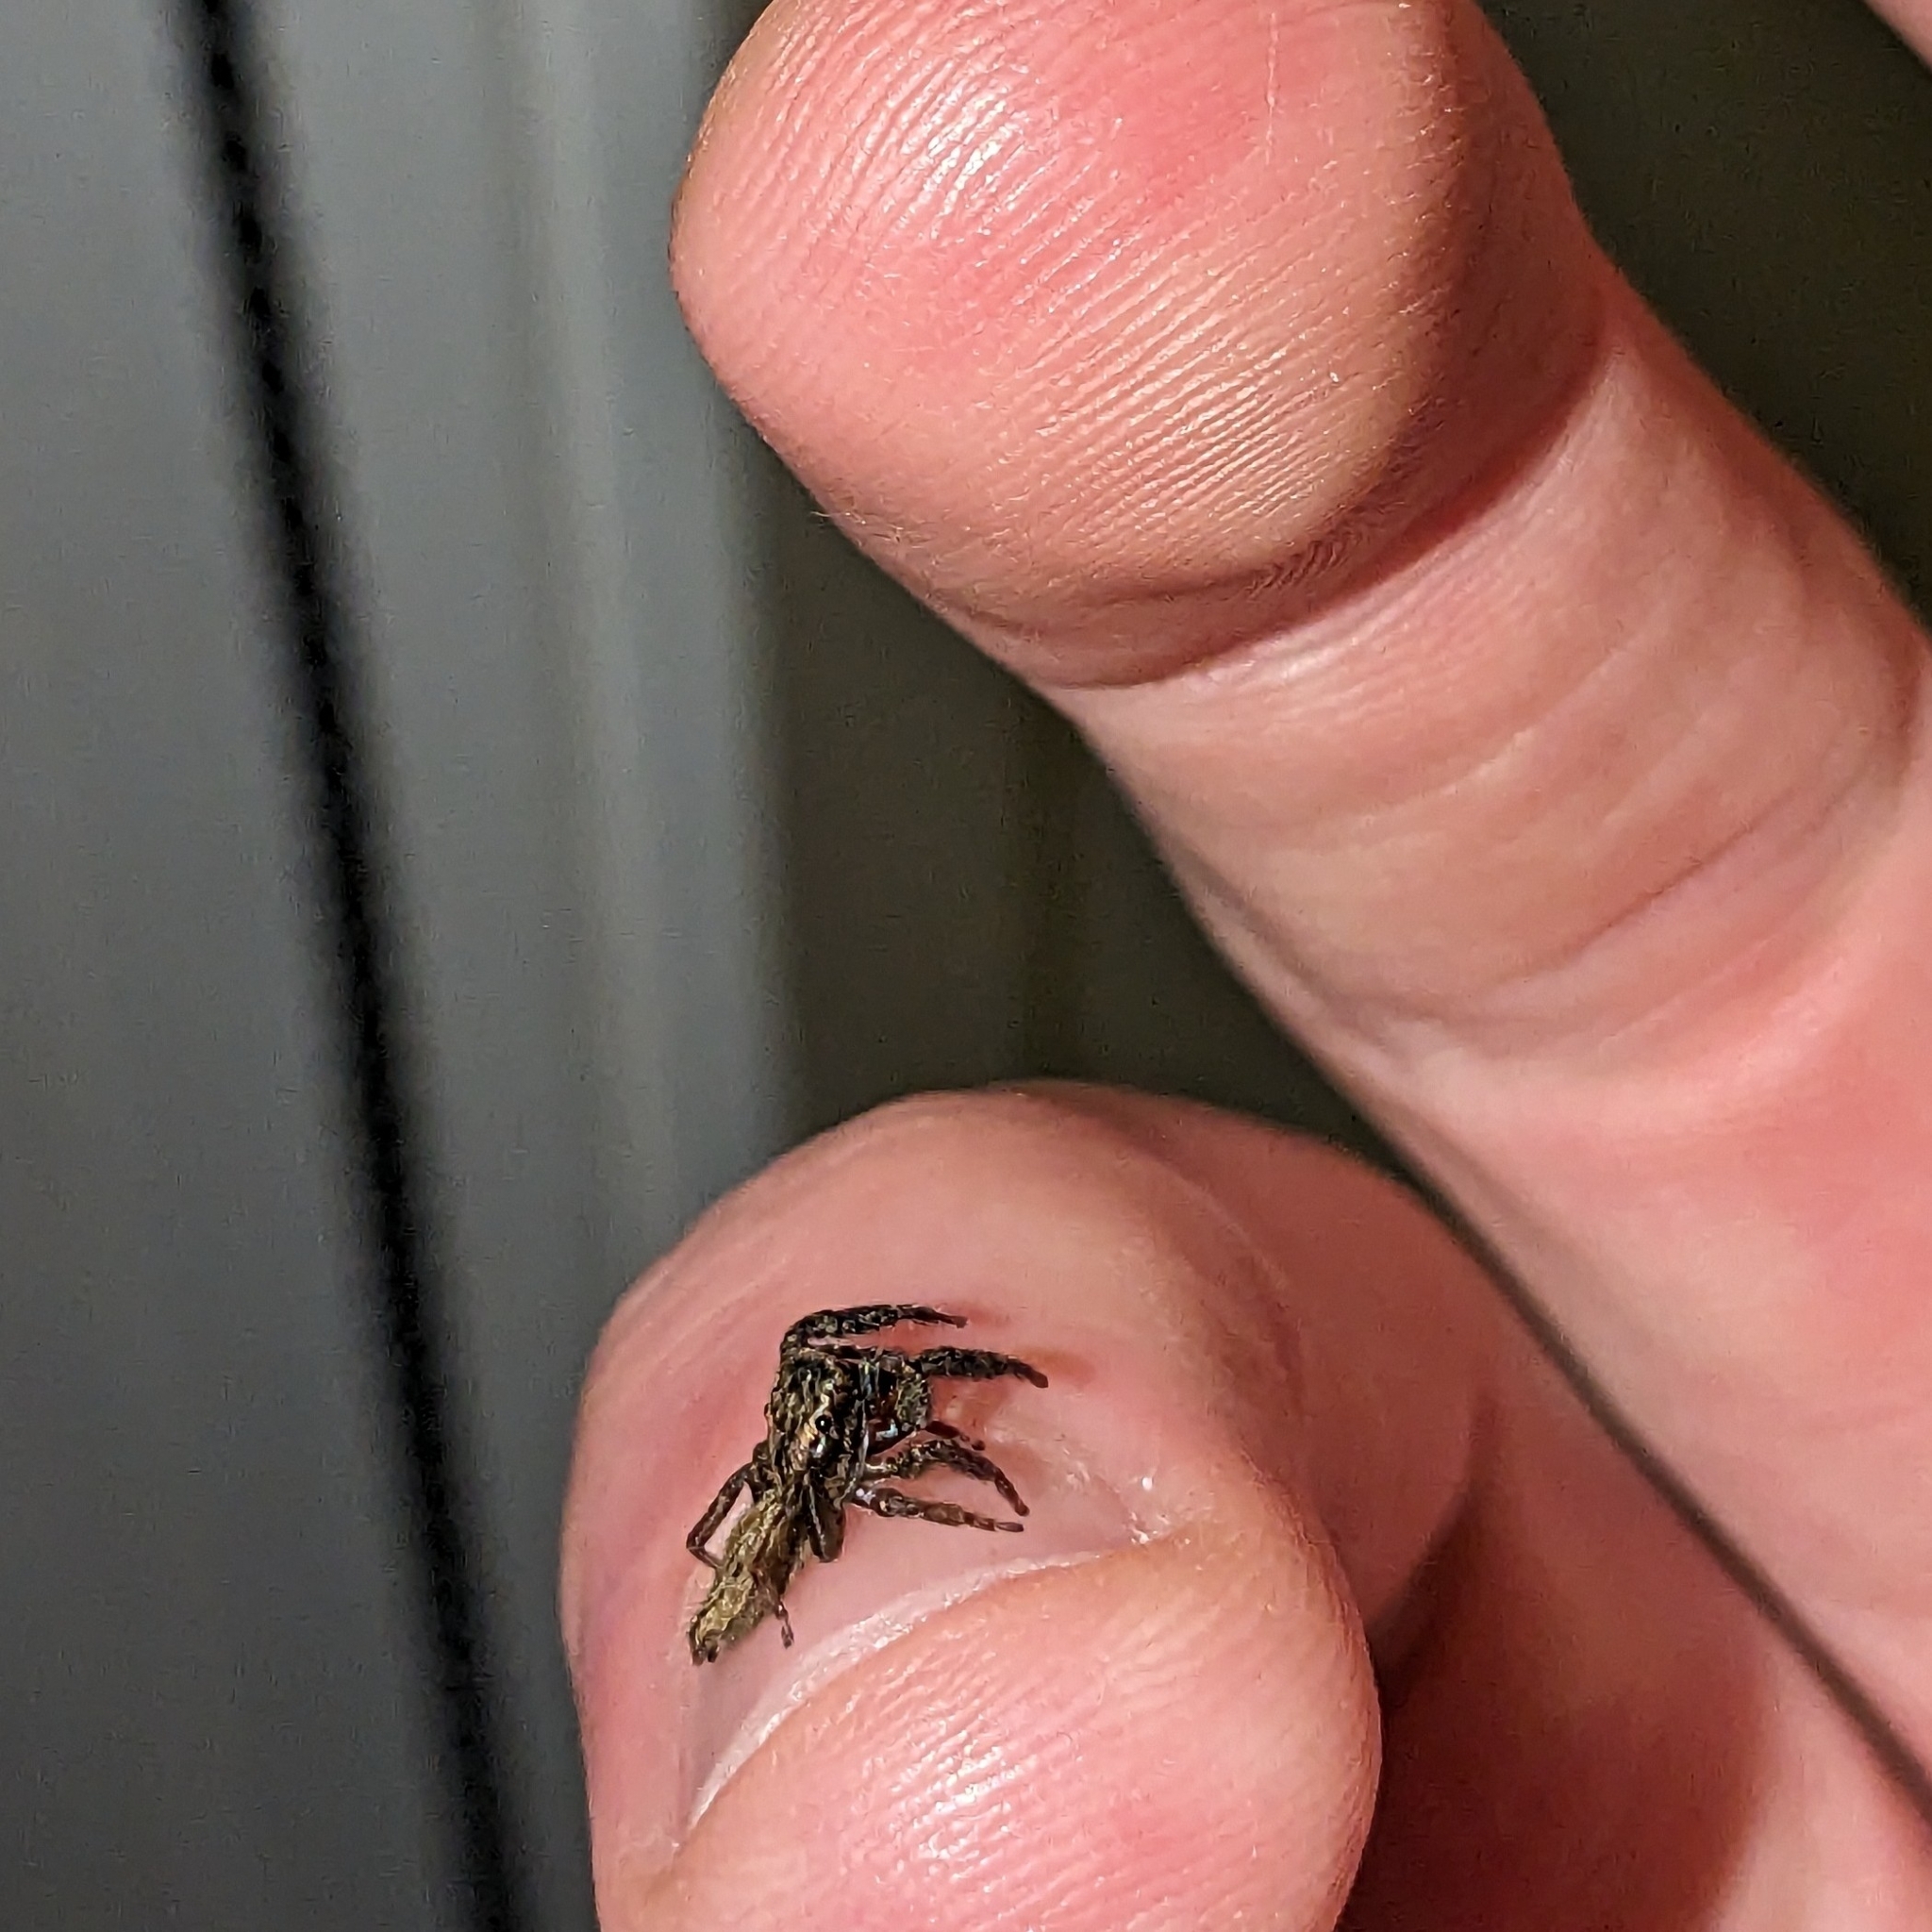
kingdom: Animalia
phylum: Arthropoda
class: Arachnida
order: Araneae
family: Salticidae
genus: Trite
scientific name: Trite auricoma
